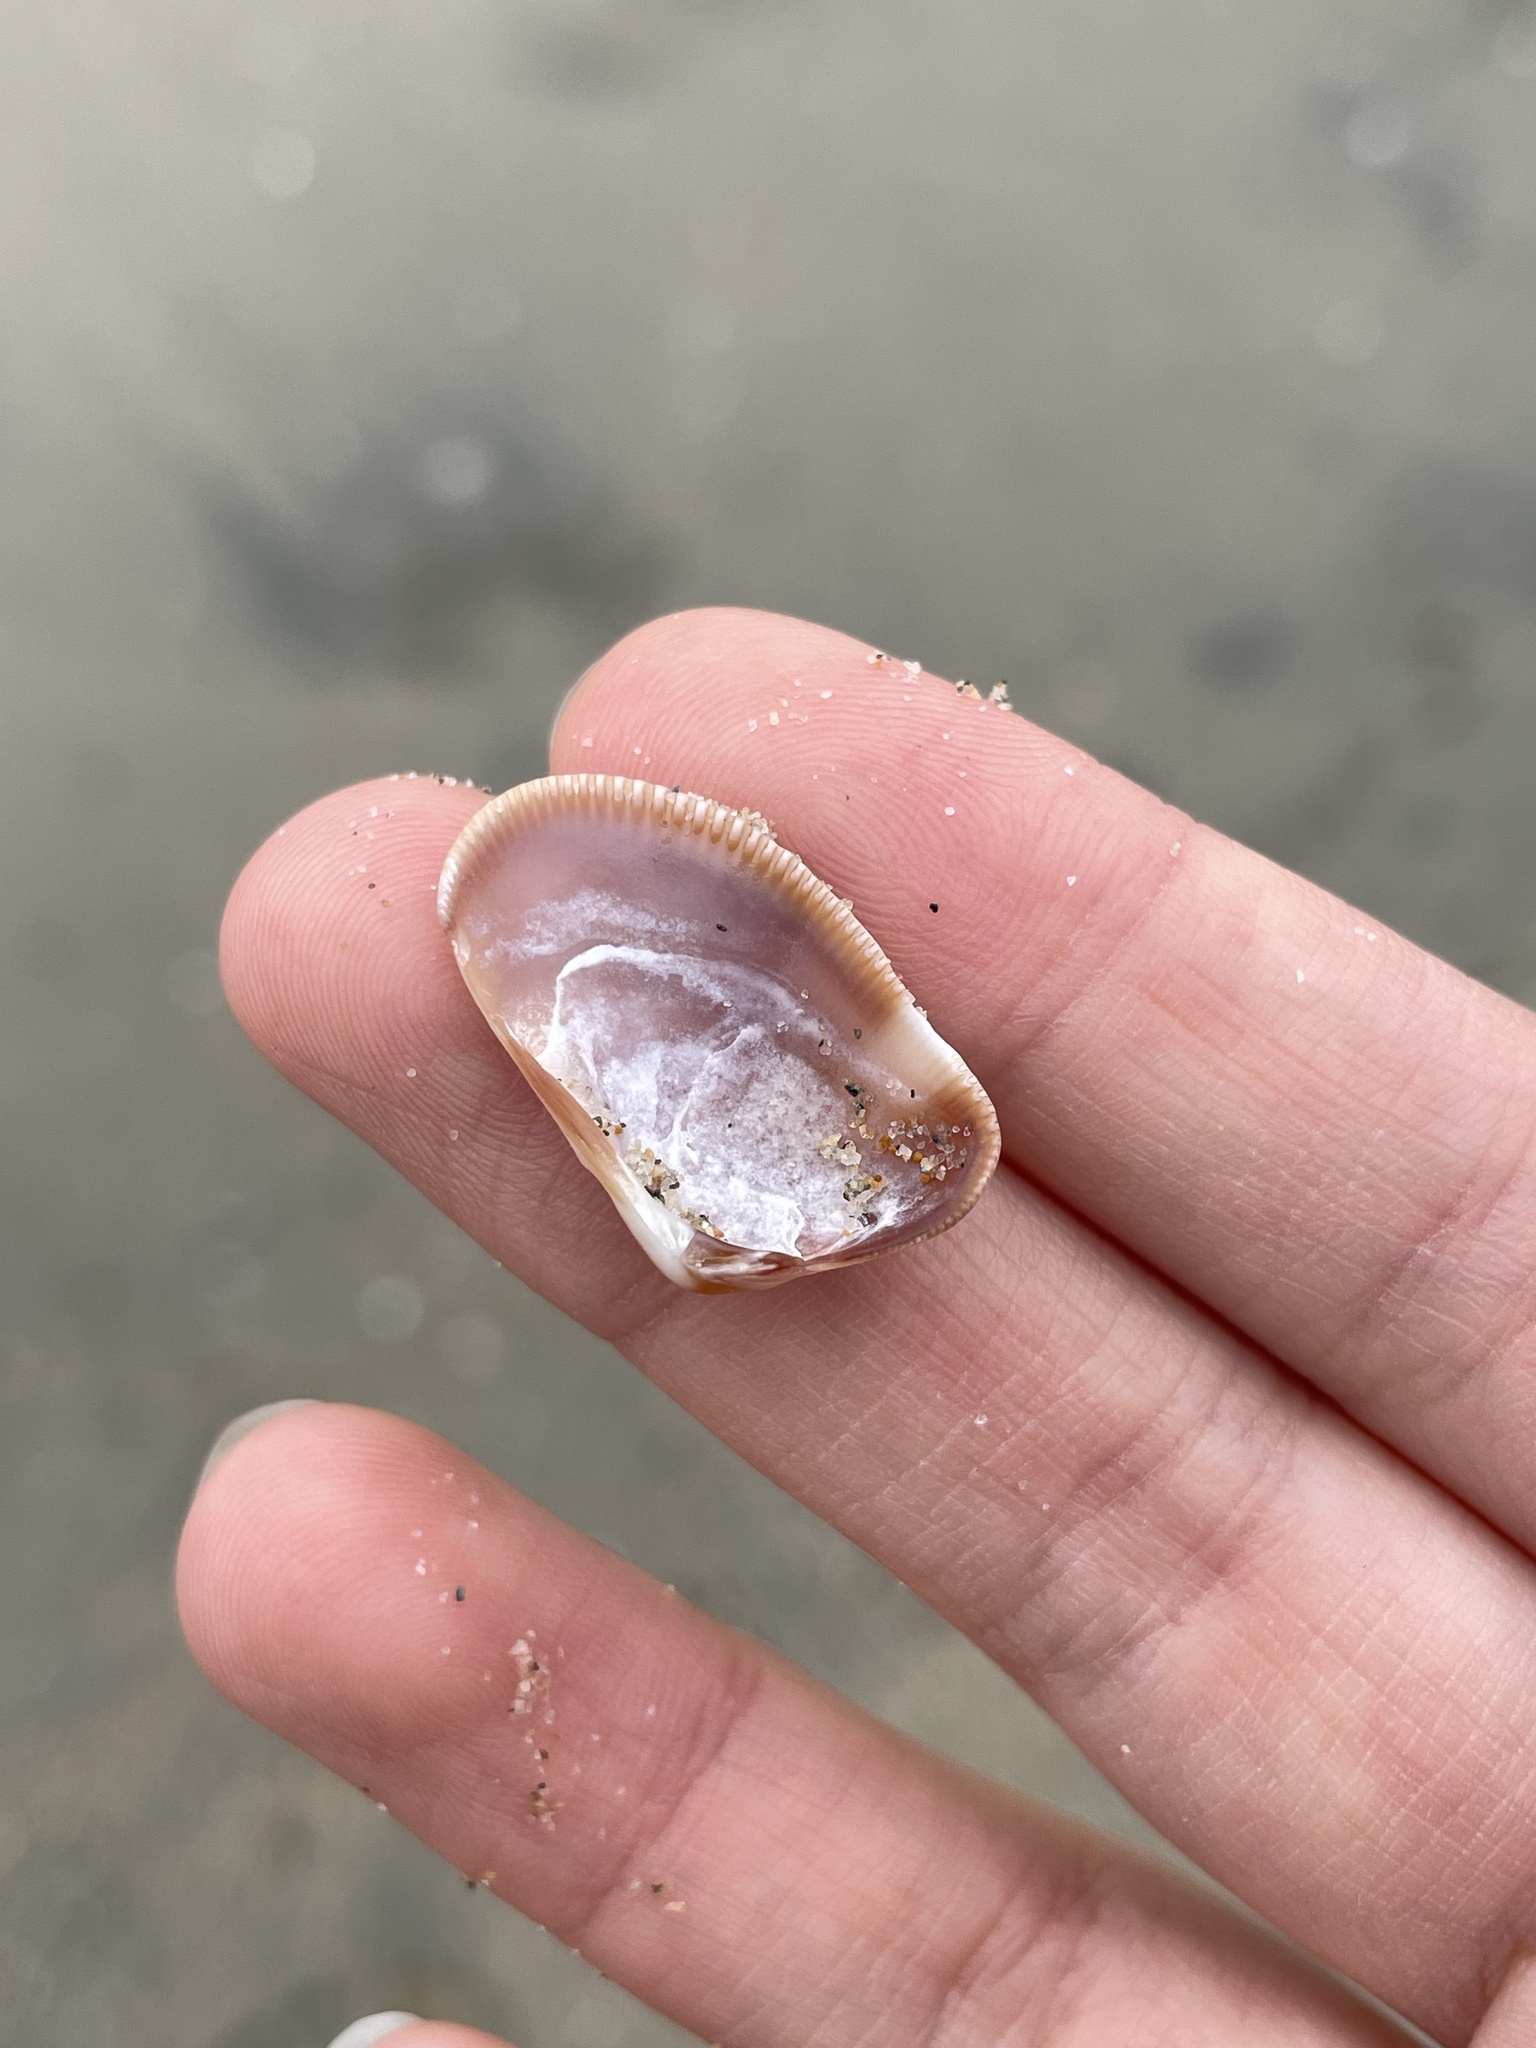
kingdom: Animalia
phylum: Mollusca
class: Bivalvia
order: Cardiida
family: Donacidae
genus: Donax
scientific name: Donax gouldii
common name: Gould beanclam
